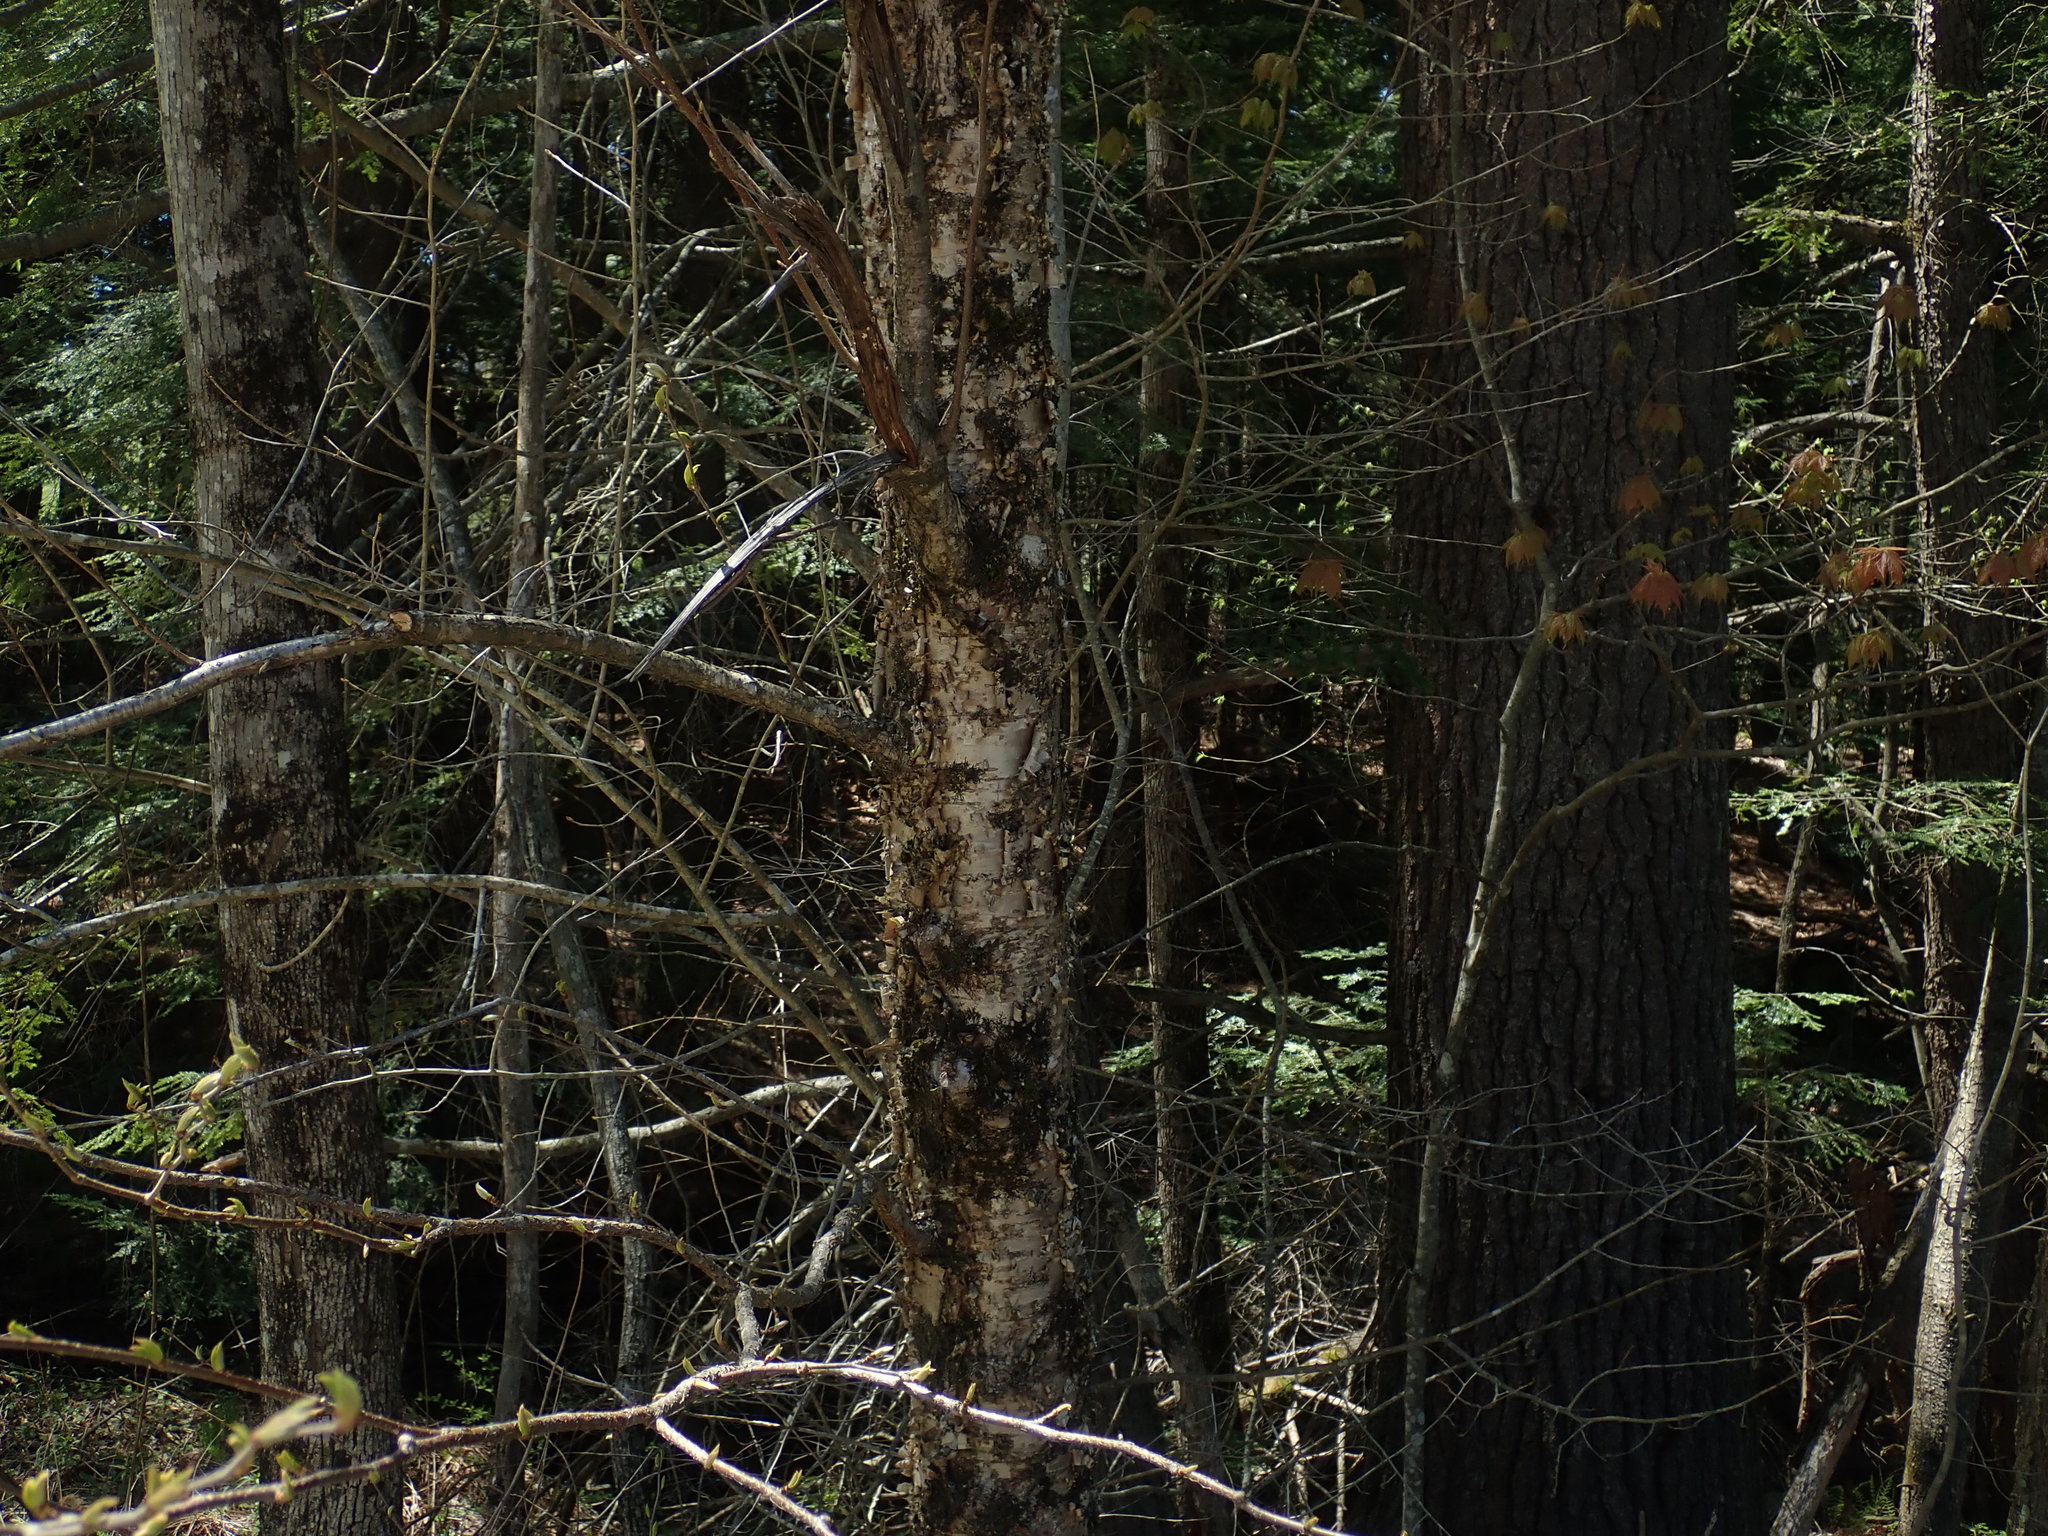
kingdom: Plantae
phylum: Tracheophyta
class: Magnoliopsida
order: Fagales
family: Betulaceae
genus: Betula
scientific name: Betula alleghaniensis
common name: Yellow birch
